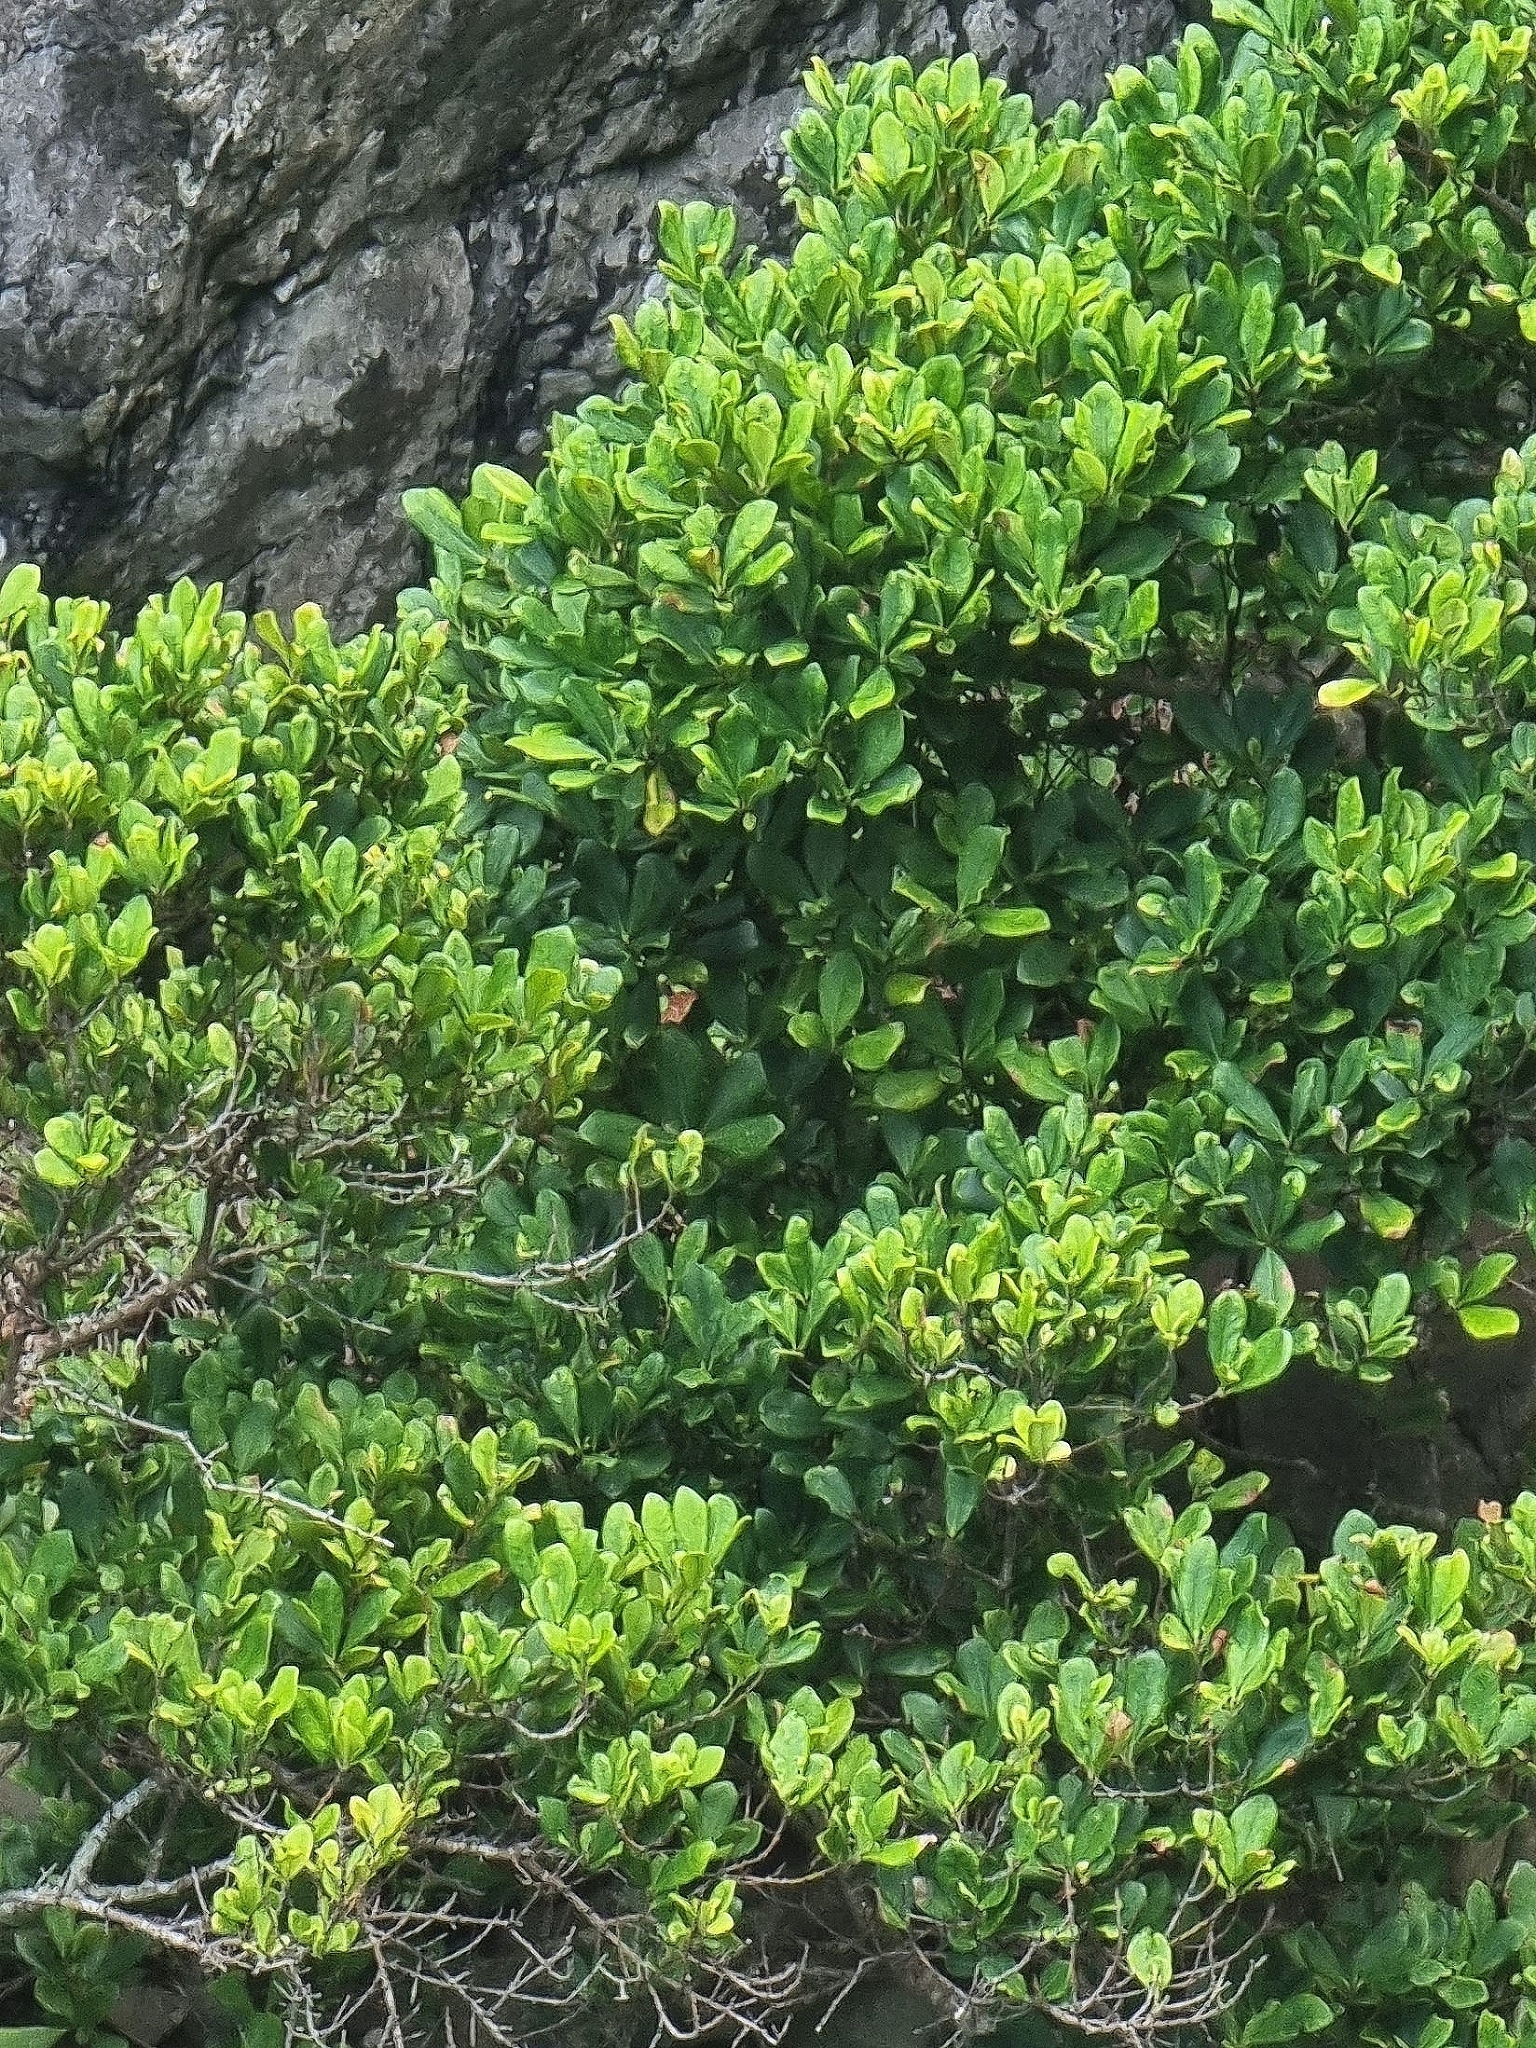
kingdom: Plantae
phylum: Tracheophyta
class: Magnoliopsida
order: Lamiales
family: Oleaceae
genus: Picconia
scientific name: Picconia excelsa
